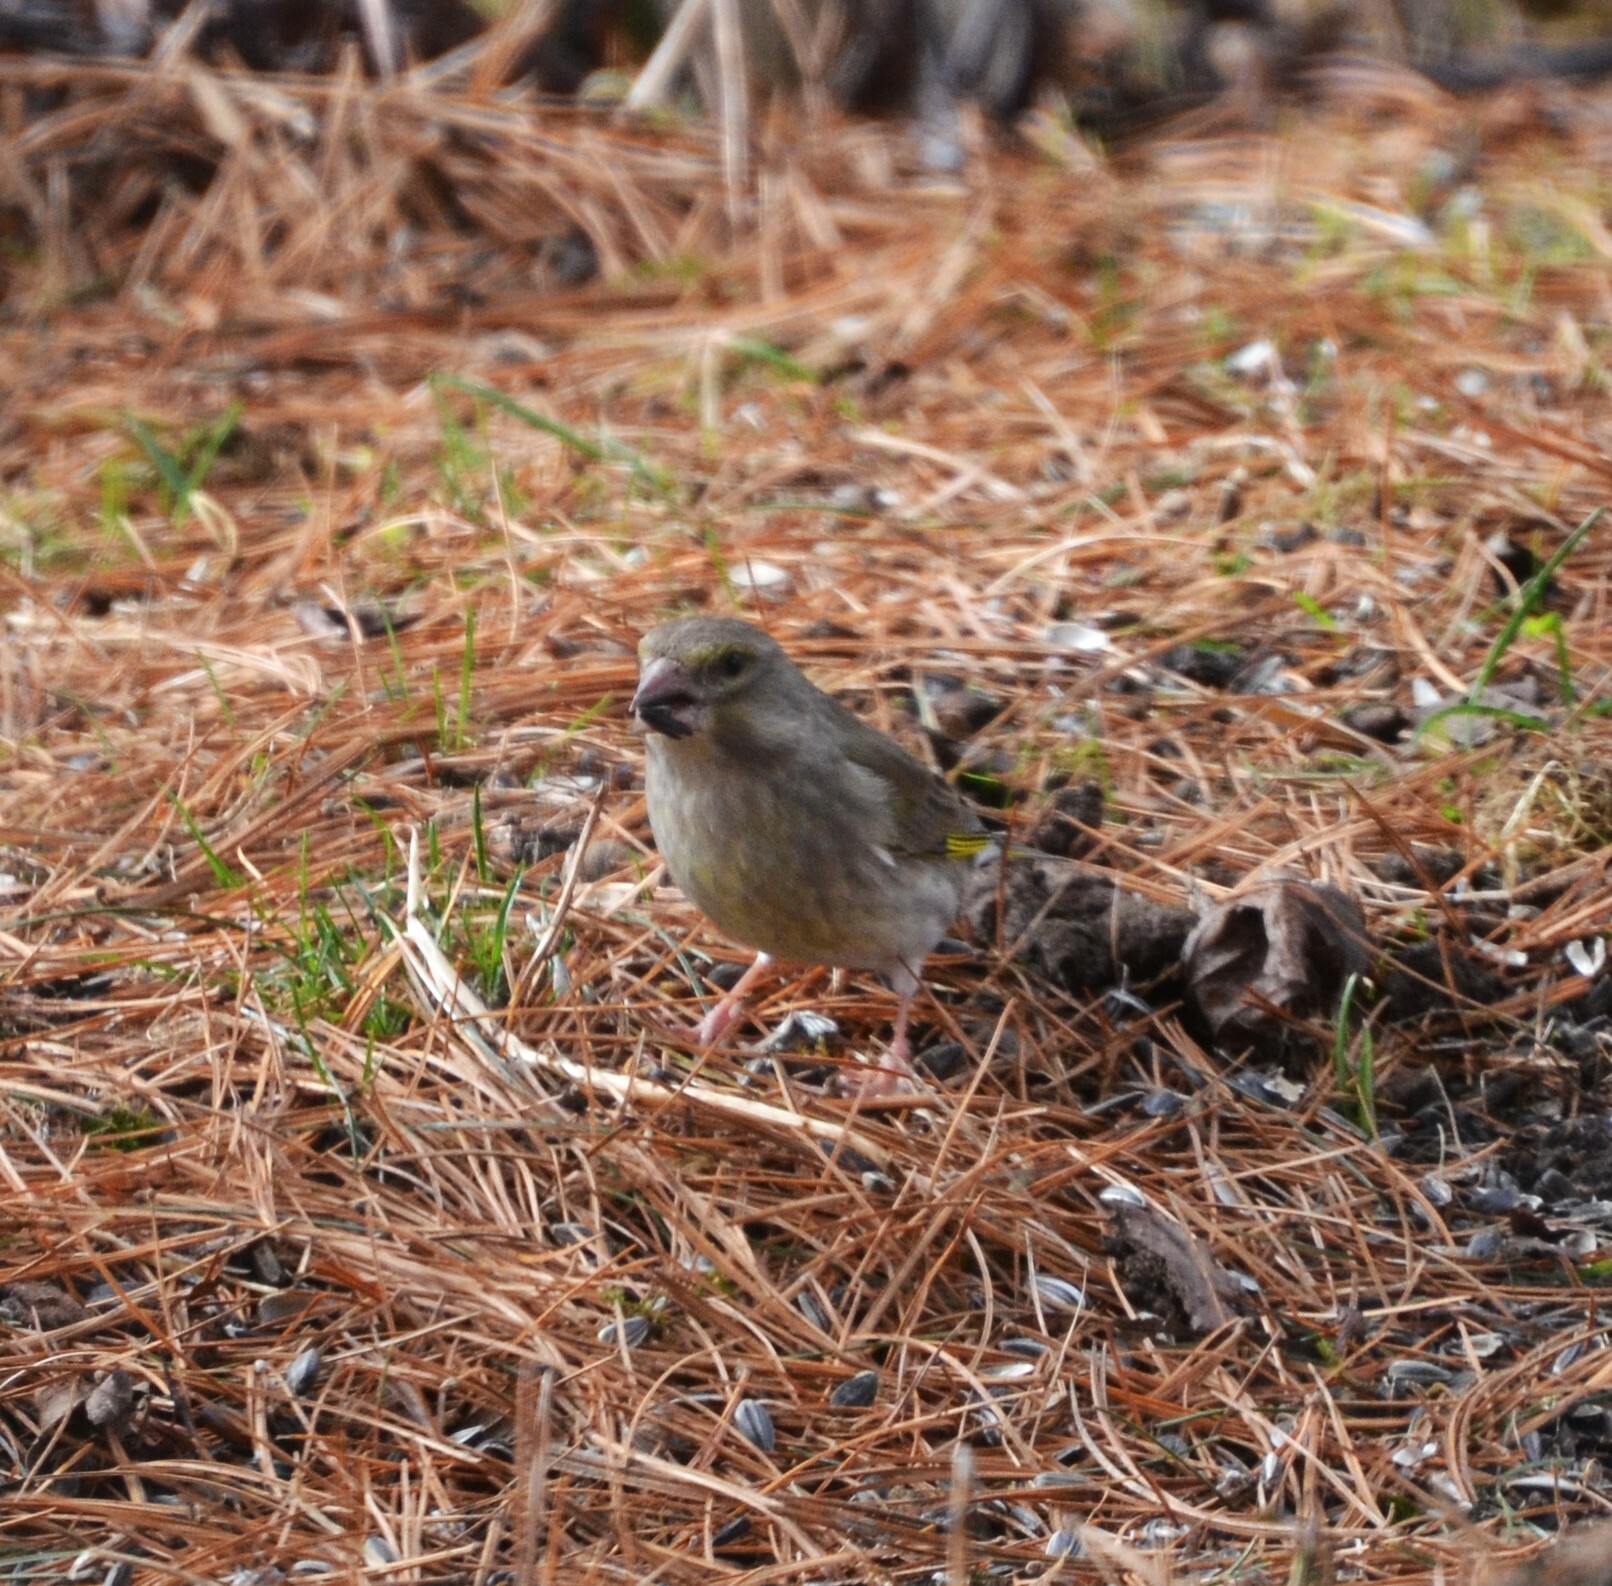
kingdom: Plantae
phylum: Tracheophyta
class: Liliopsida
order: Poales
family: Poaceae
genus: Chloris
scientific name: Chloris chloris
